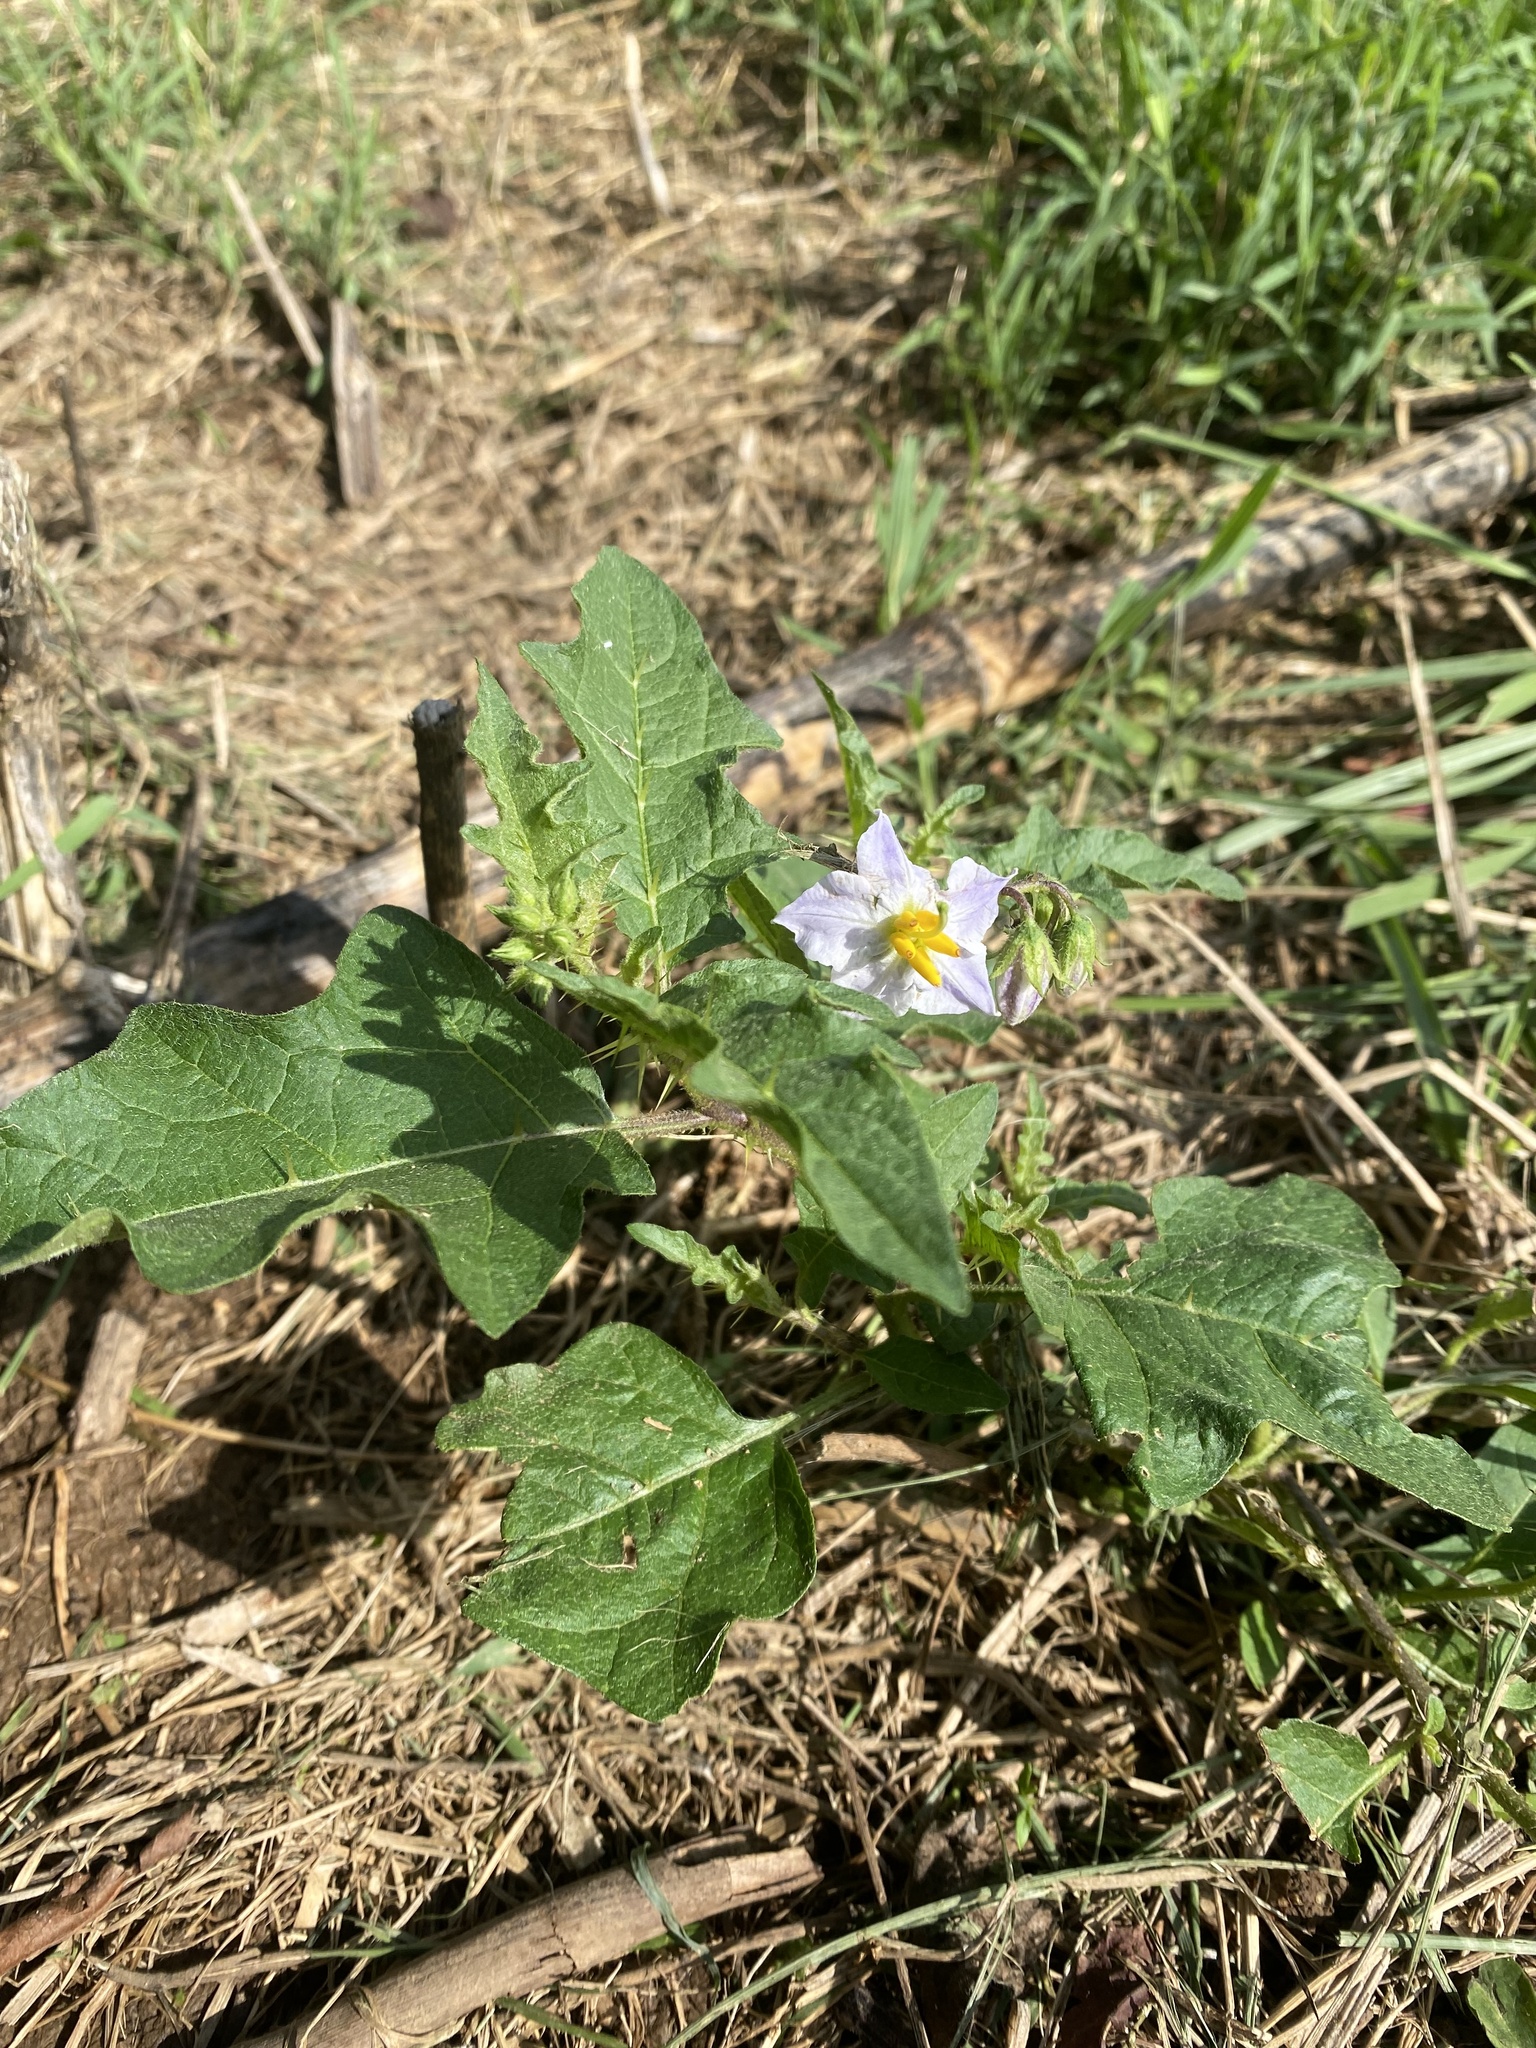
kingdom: Plantae
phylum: Tracheophyta
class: Magnoliopsida
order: Solanales
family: Solanaceae
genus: Solanum
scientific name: Solanum carolinense
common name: Horse-nettle
